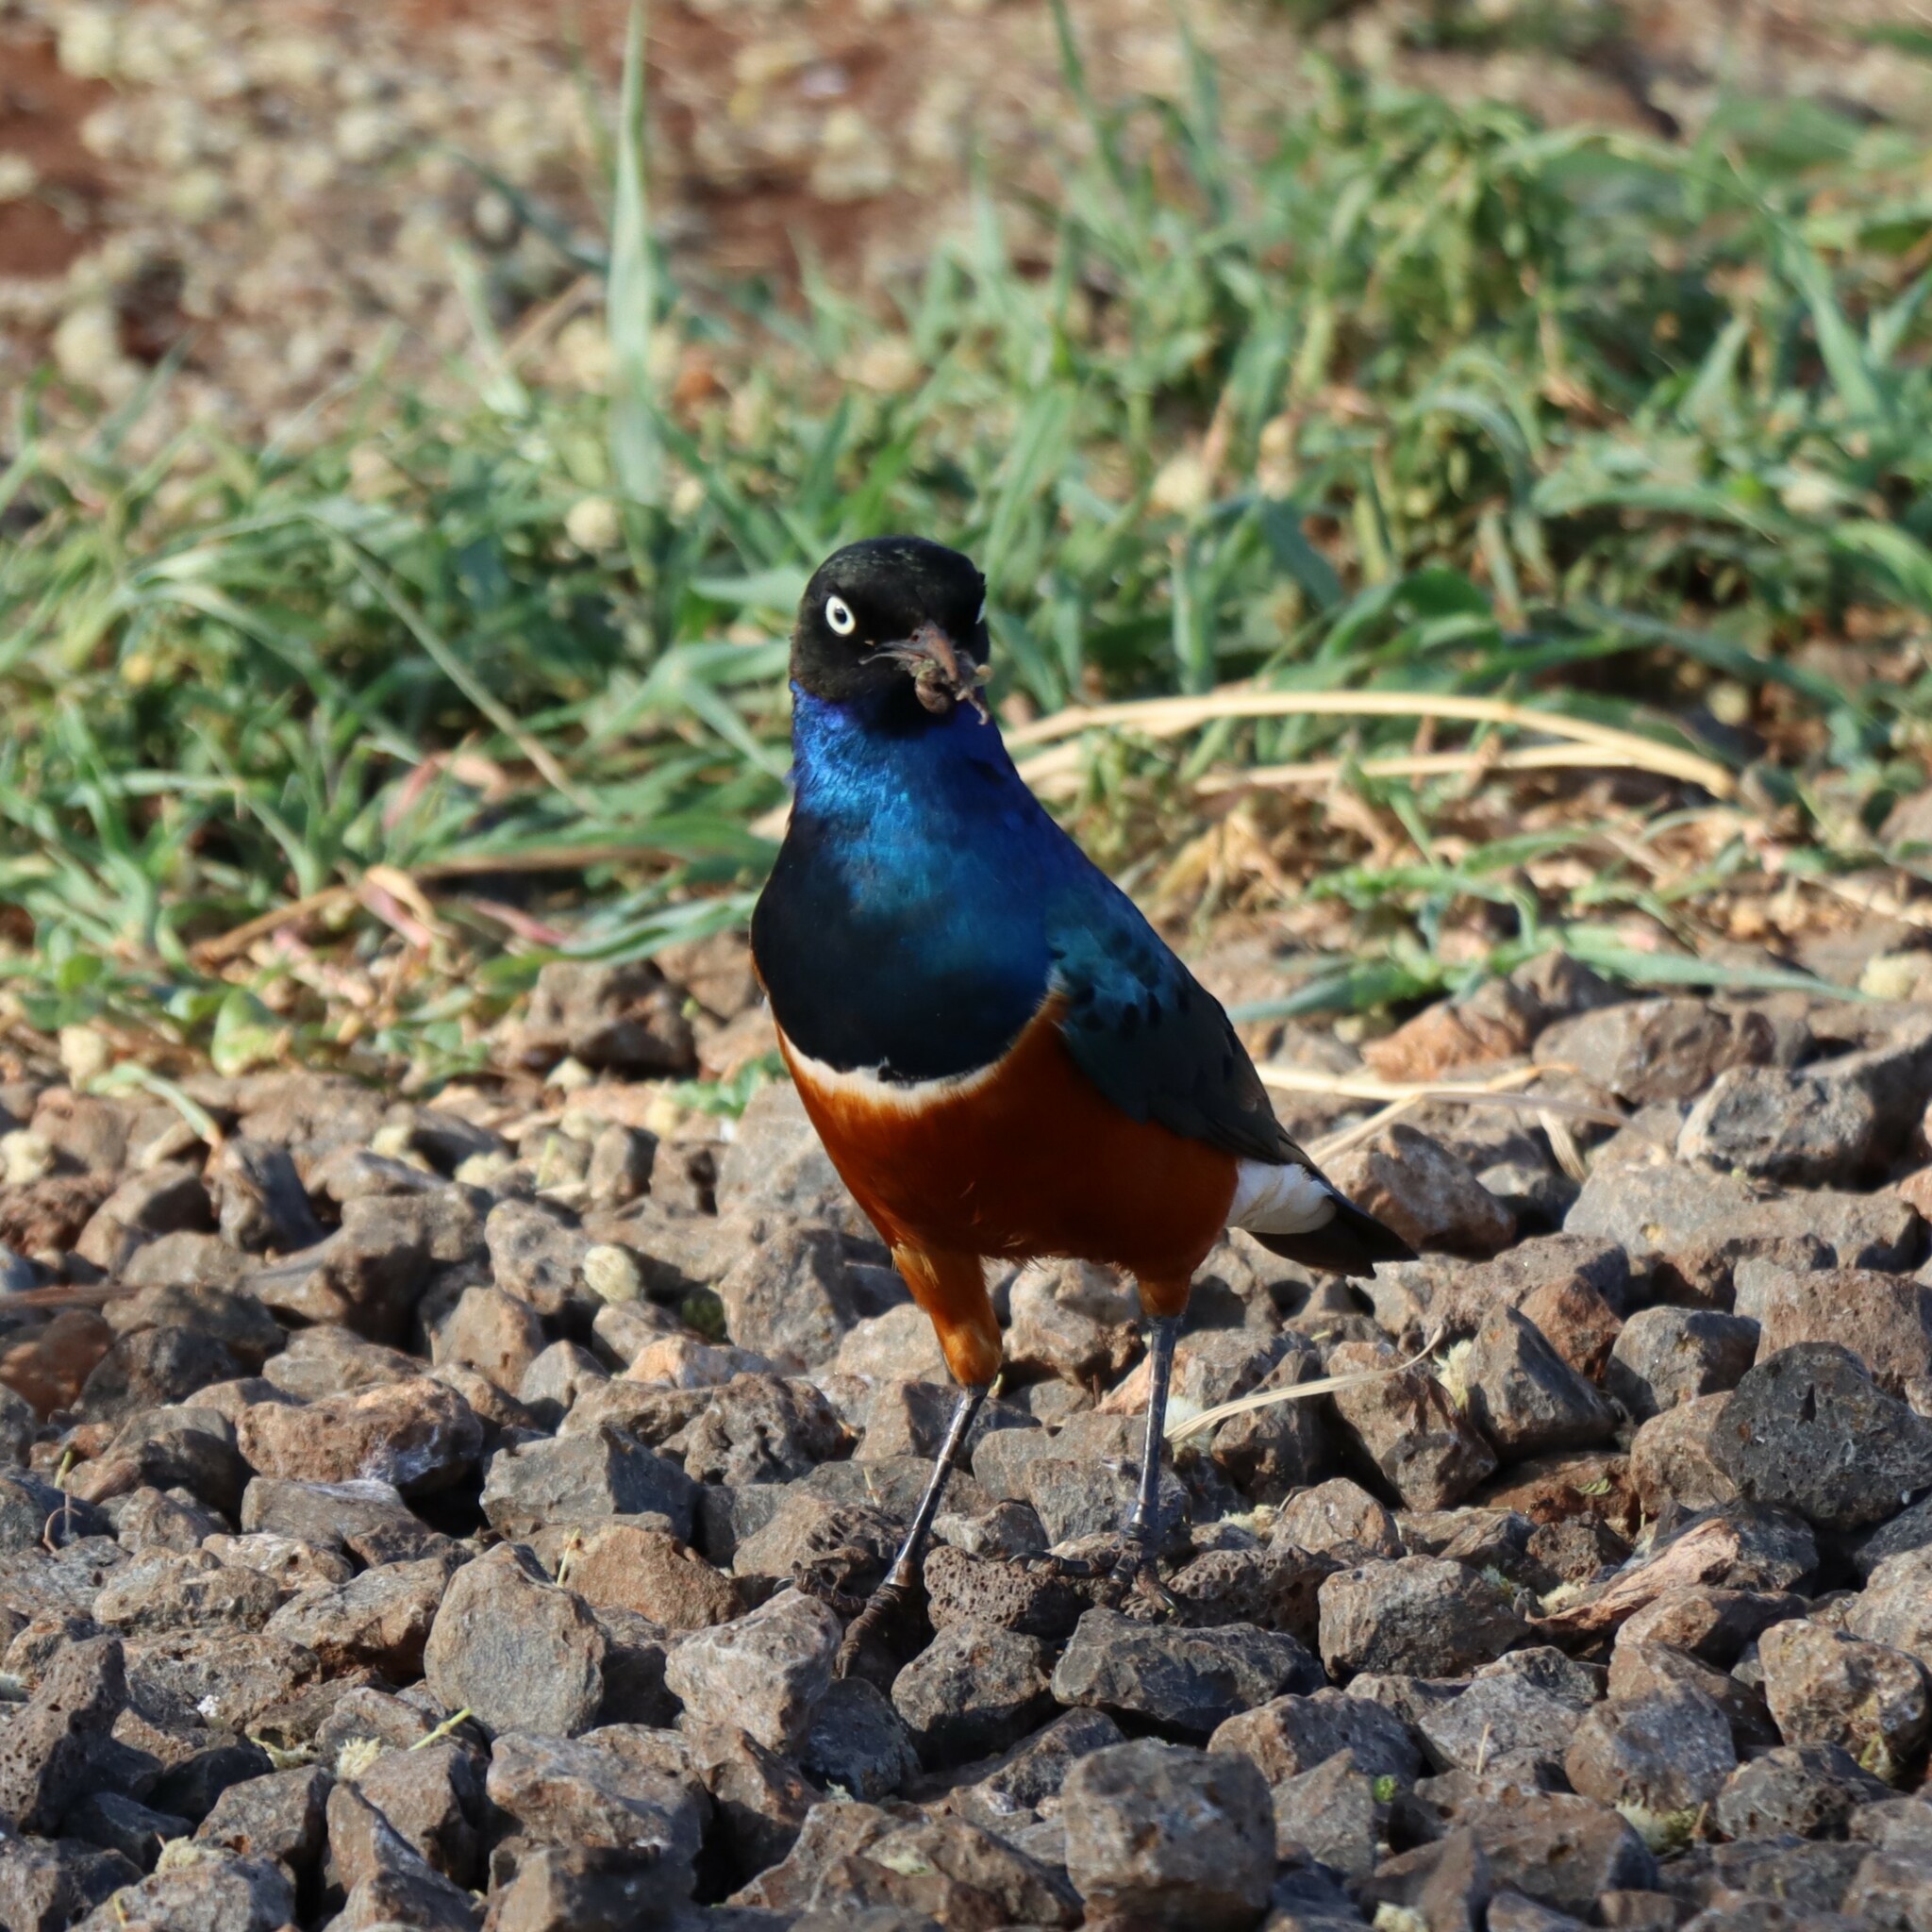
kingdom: Animalia
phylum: Chordata
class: Aves
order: Passeriformes
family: Sturnidae
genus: Lamprotornis
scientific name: Lamprotornis superbus
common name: Superb starling
